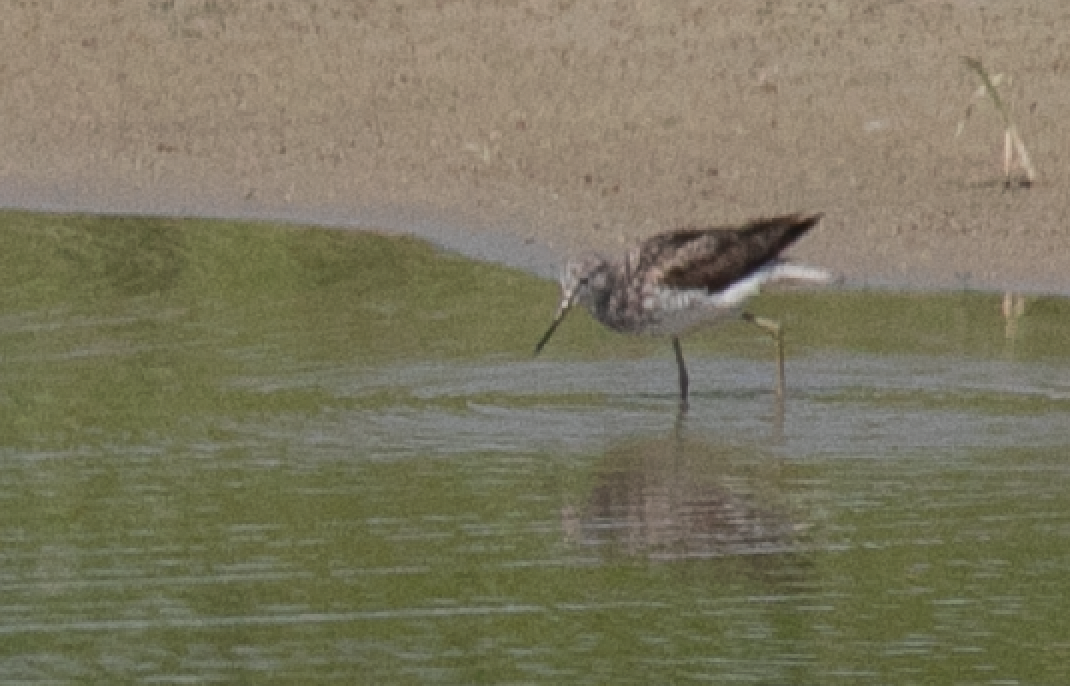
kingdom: Animalia
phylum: Chordata
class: Aves
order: Charadriiformes
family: Scolopacidae
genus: Tringa
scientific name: Tringa nebularia
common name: Common greenshank
